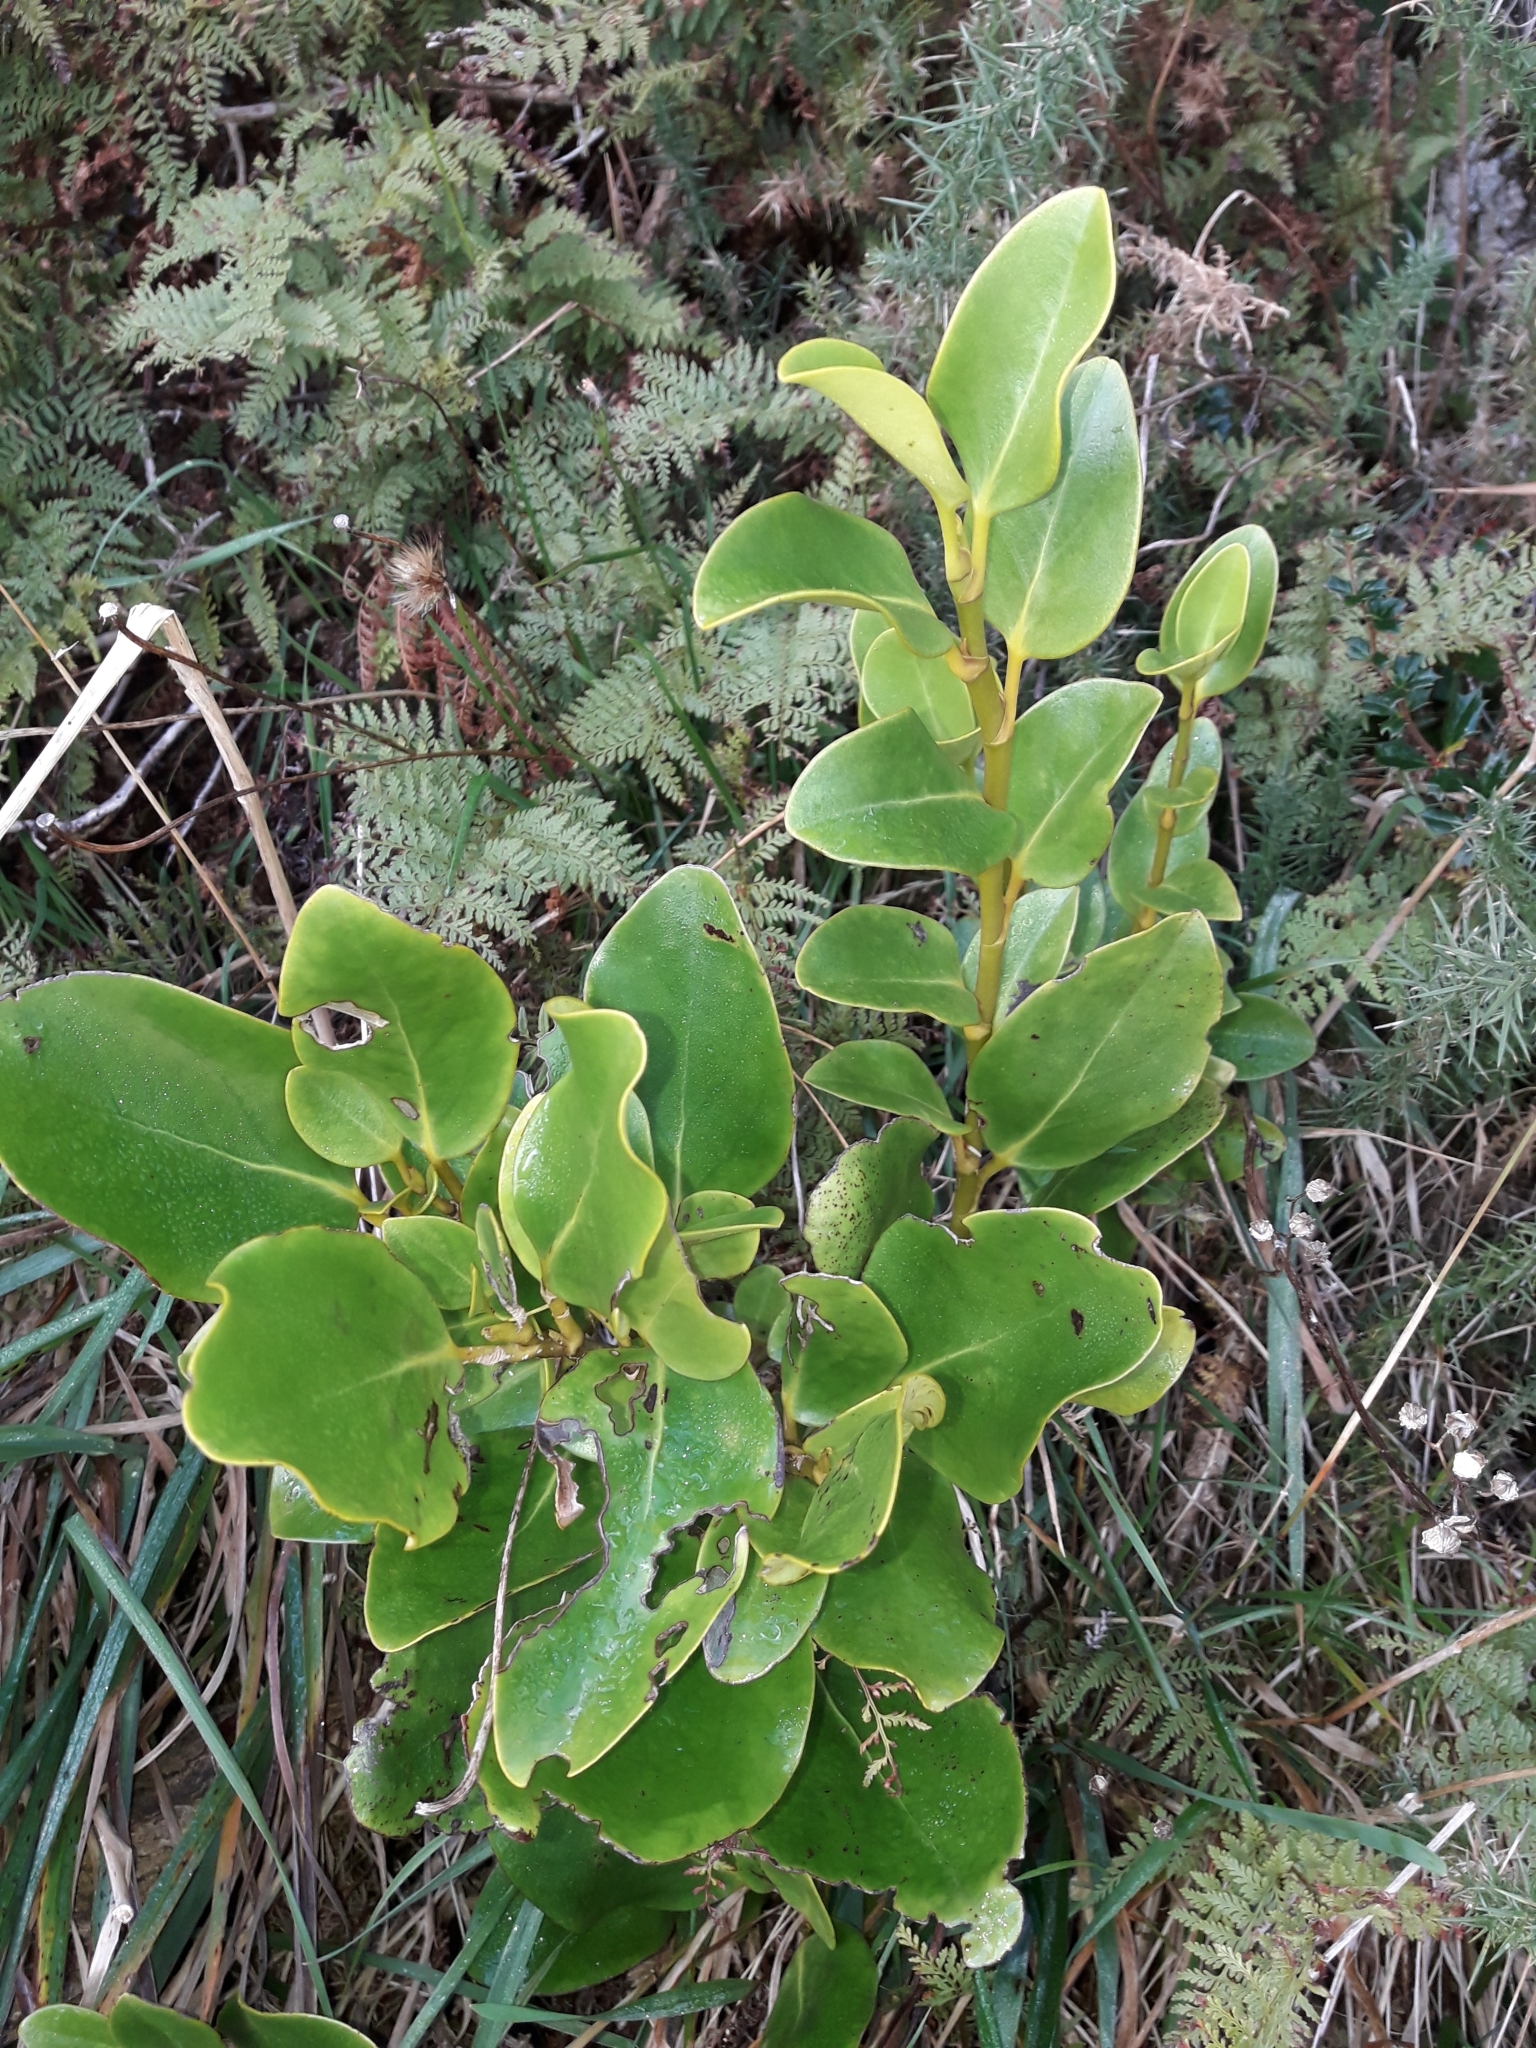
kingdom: Plantae
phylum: Tracheophyta
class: Magnoliopsida
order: Apiales
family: Griseliniaceae
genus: Griselinia
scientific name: Griselinia littoralis
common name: New zealand broadleaf
